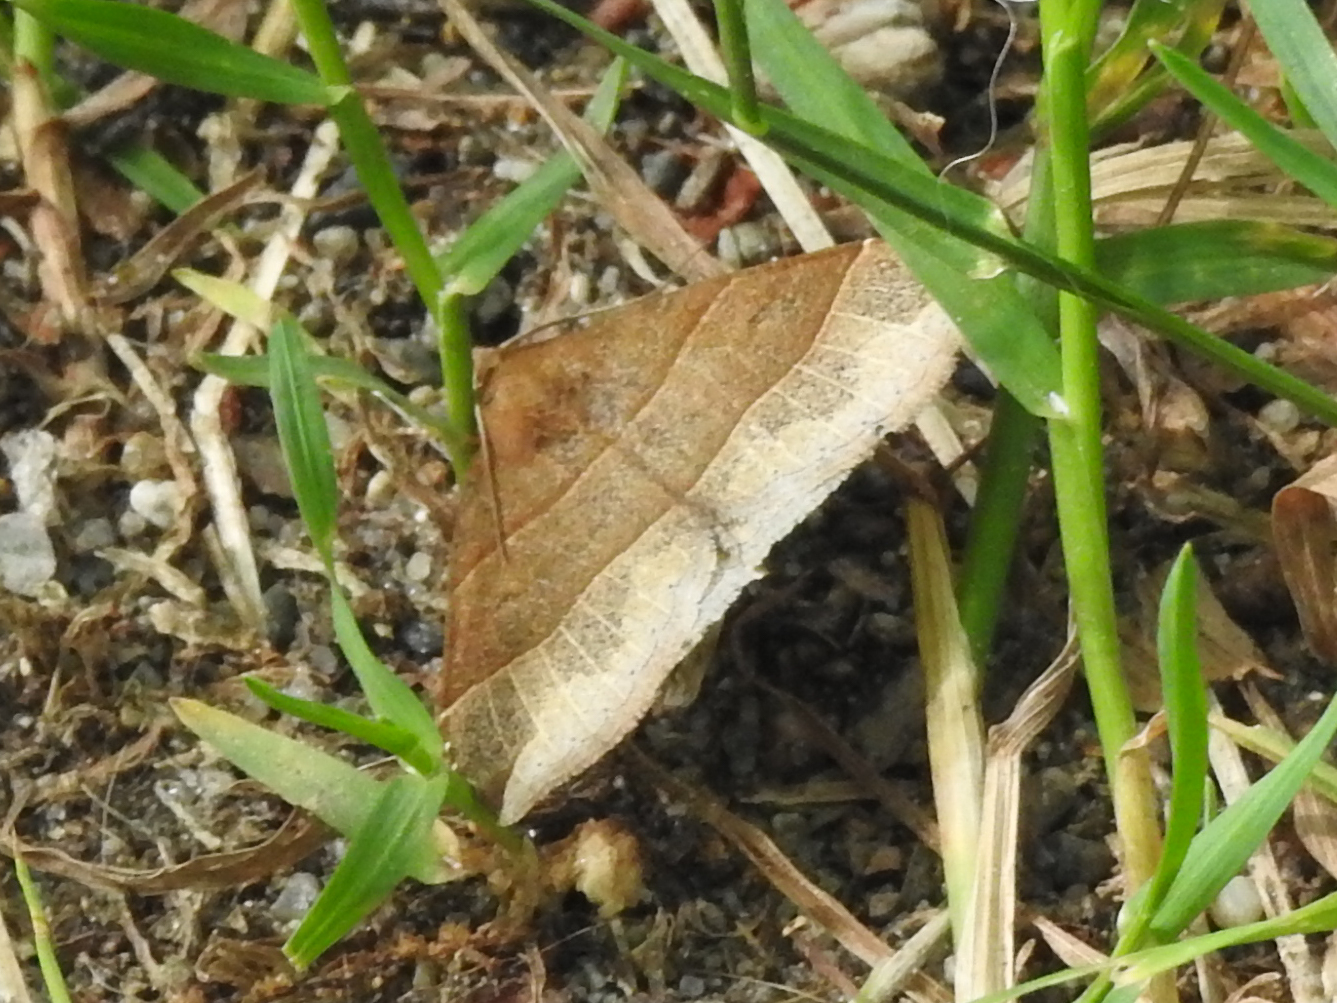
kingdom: Animalia
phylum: Arthropoda
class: Insecta
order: Lepidoptera
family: Erebidae
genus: Parallelia
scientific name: Parallelia bistriaris
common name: Maple looper moth
